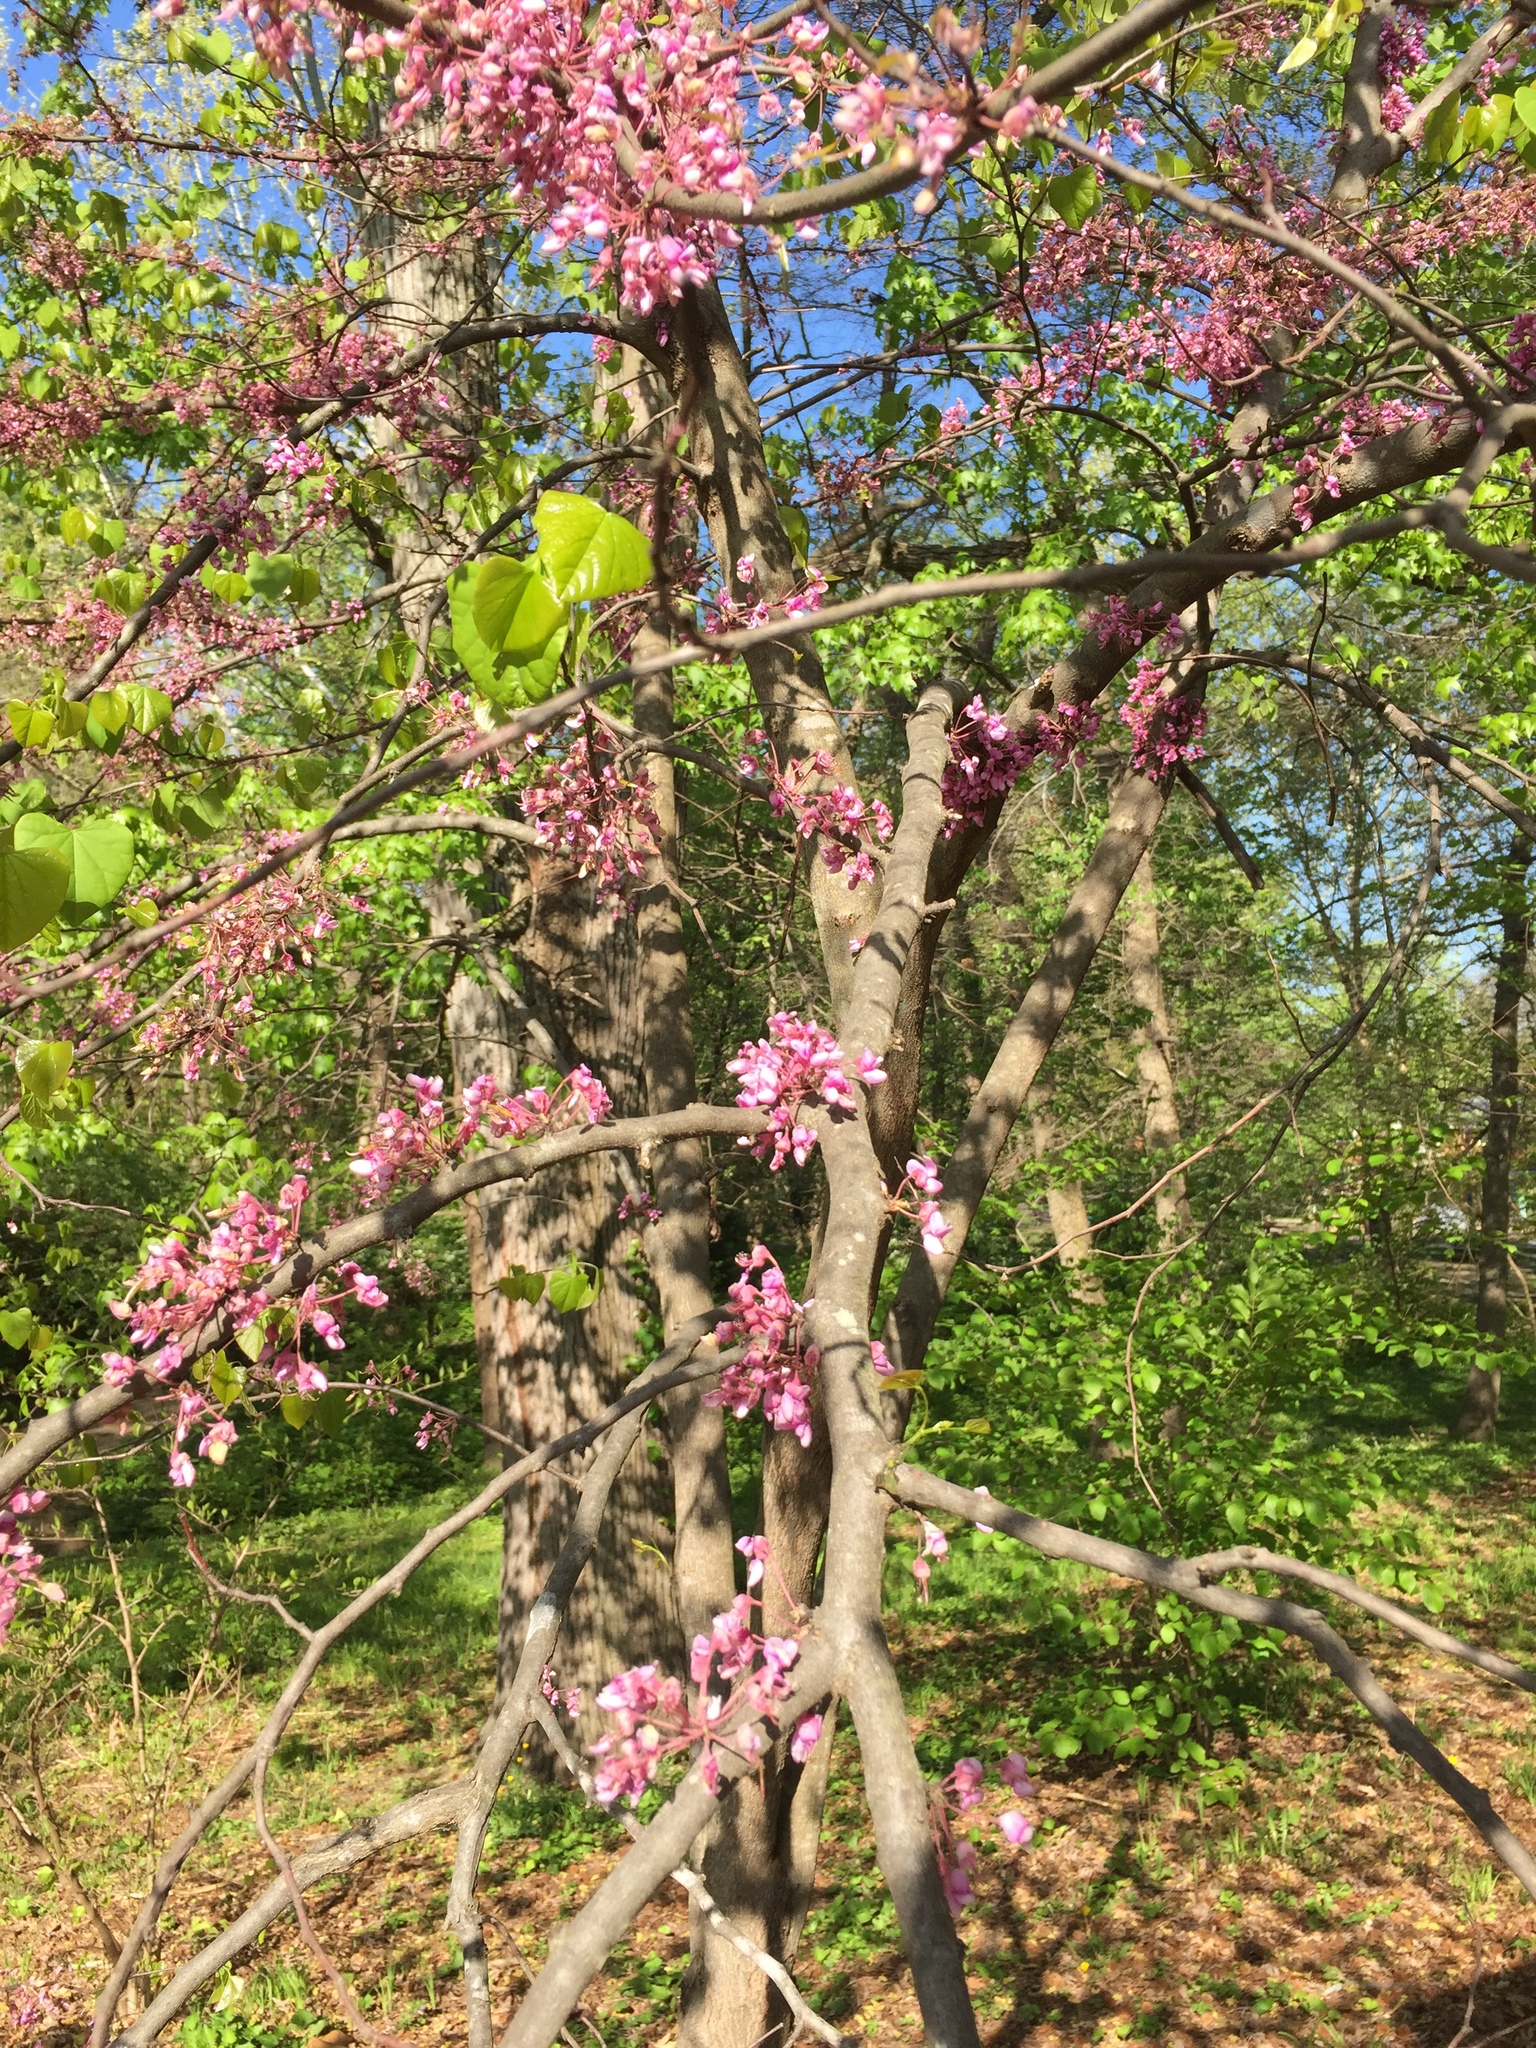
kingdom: Plantae
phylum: Tracheophyta
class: Magnoliopsida
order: Fabales
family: Fabaceae
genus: Cercis
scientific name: Cercis canadensis
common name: Eastern redbud
